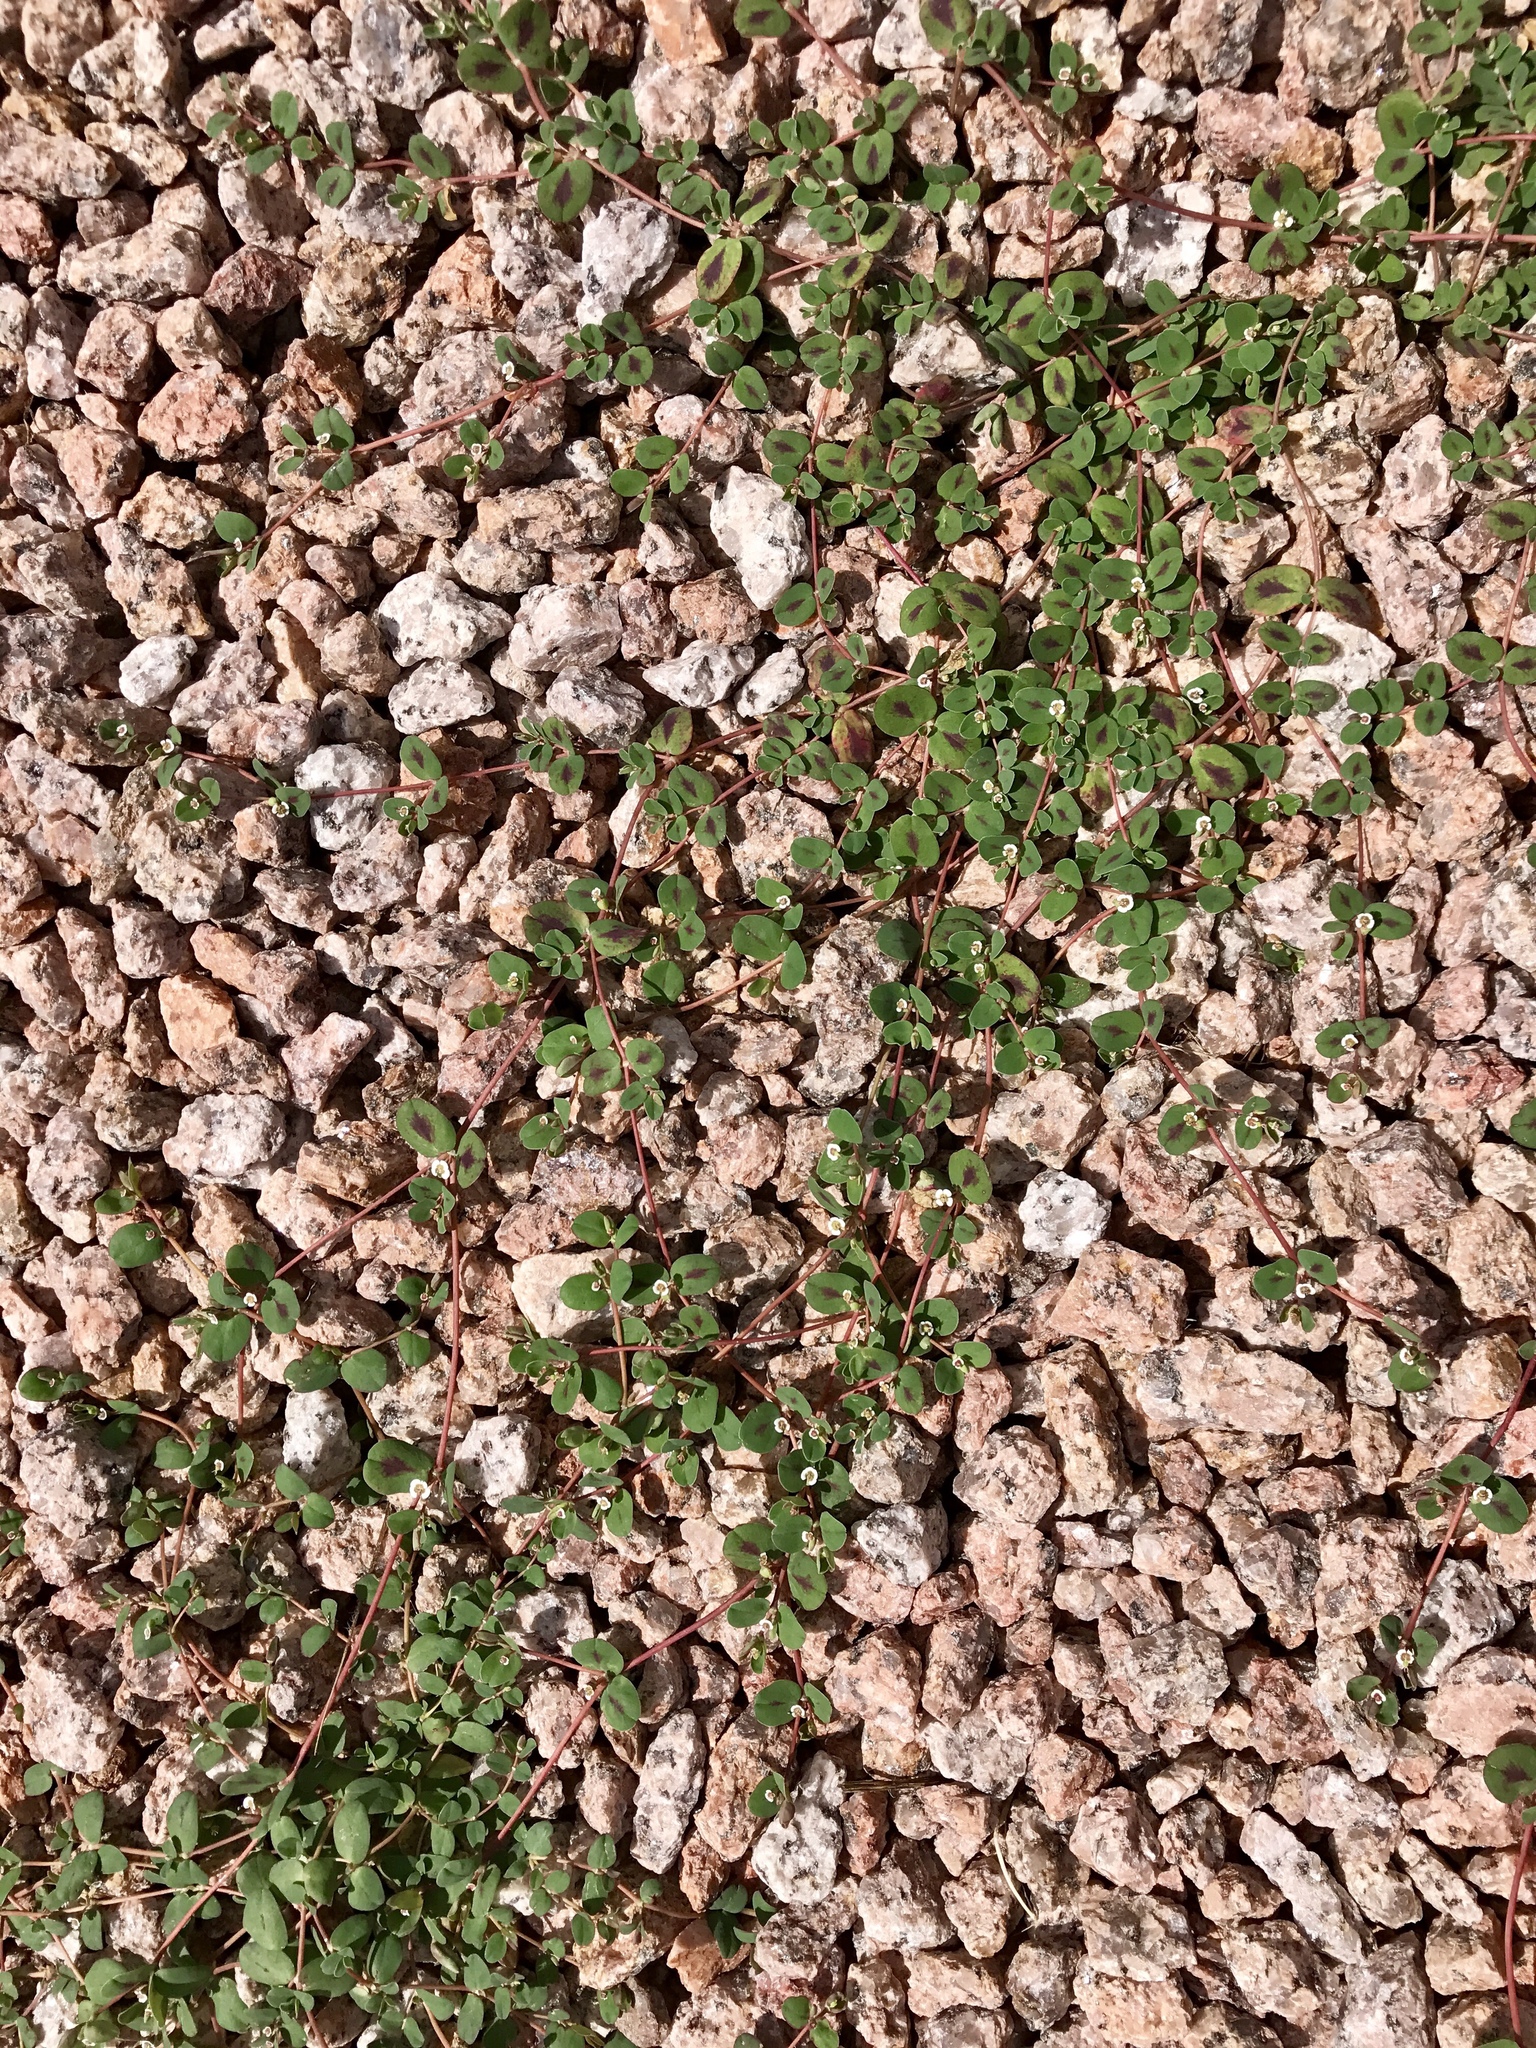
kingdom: Plantae
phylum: Tracheophyta
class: Magnoliopsida
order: Malpighiales
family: Euphorbiaceae
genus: Euphorbia
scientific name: Euphorbia albomarginata
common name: Whitemargin sandmat
